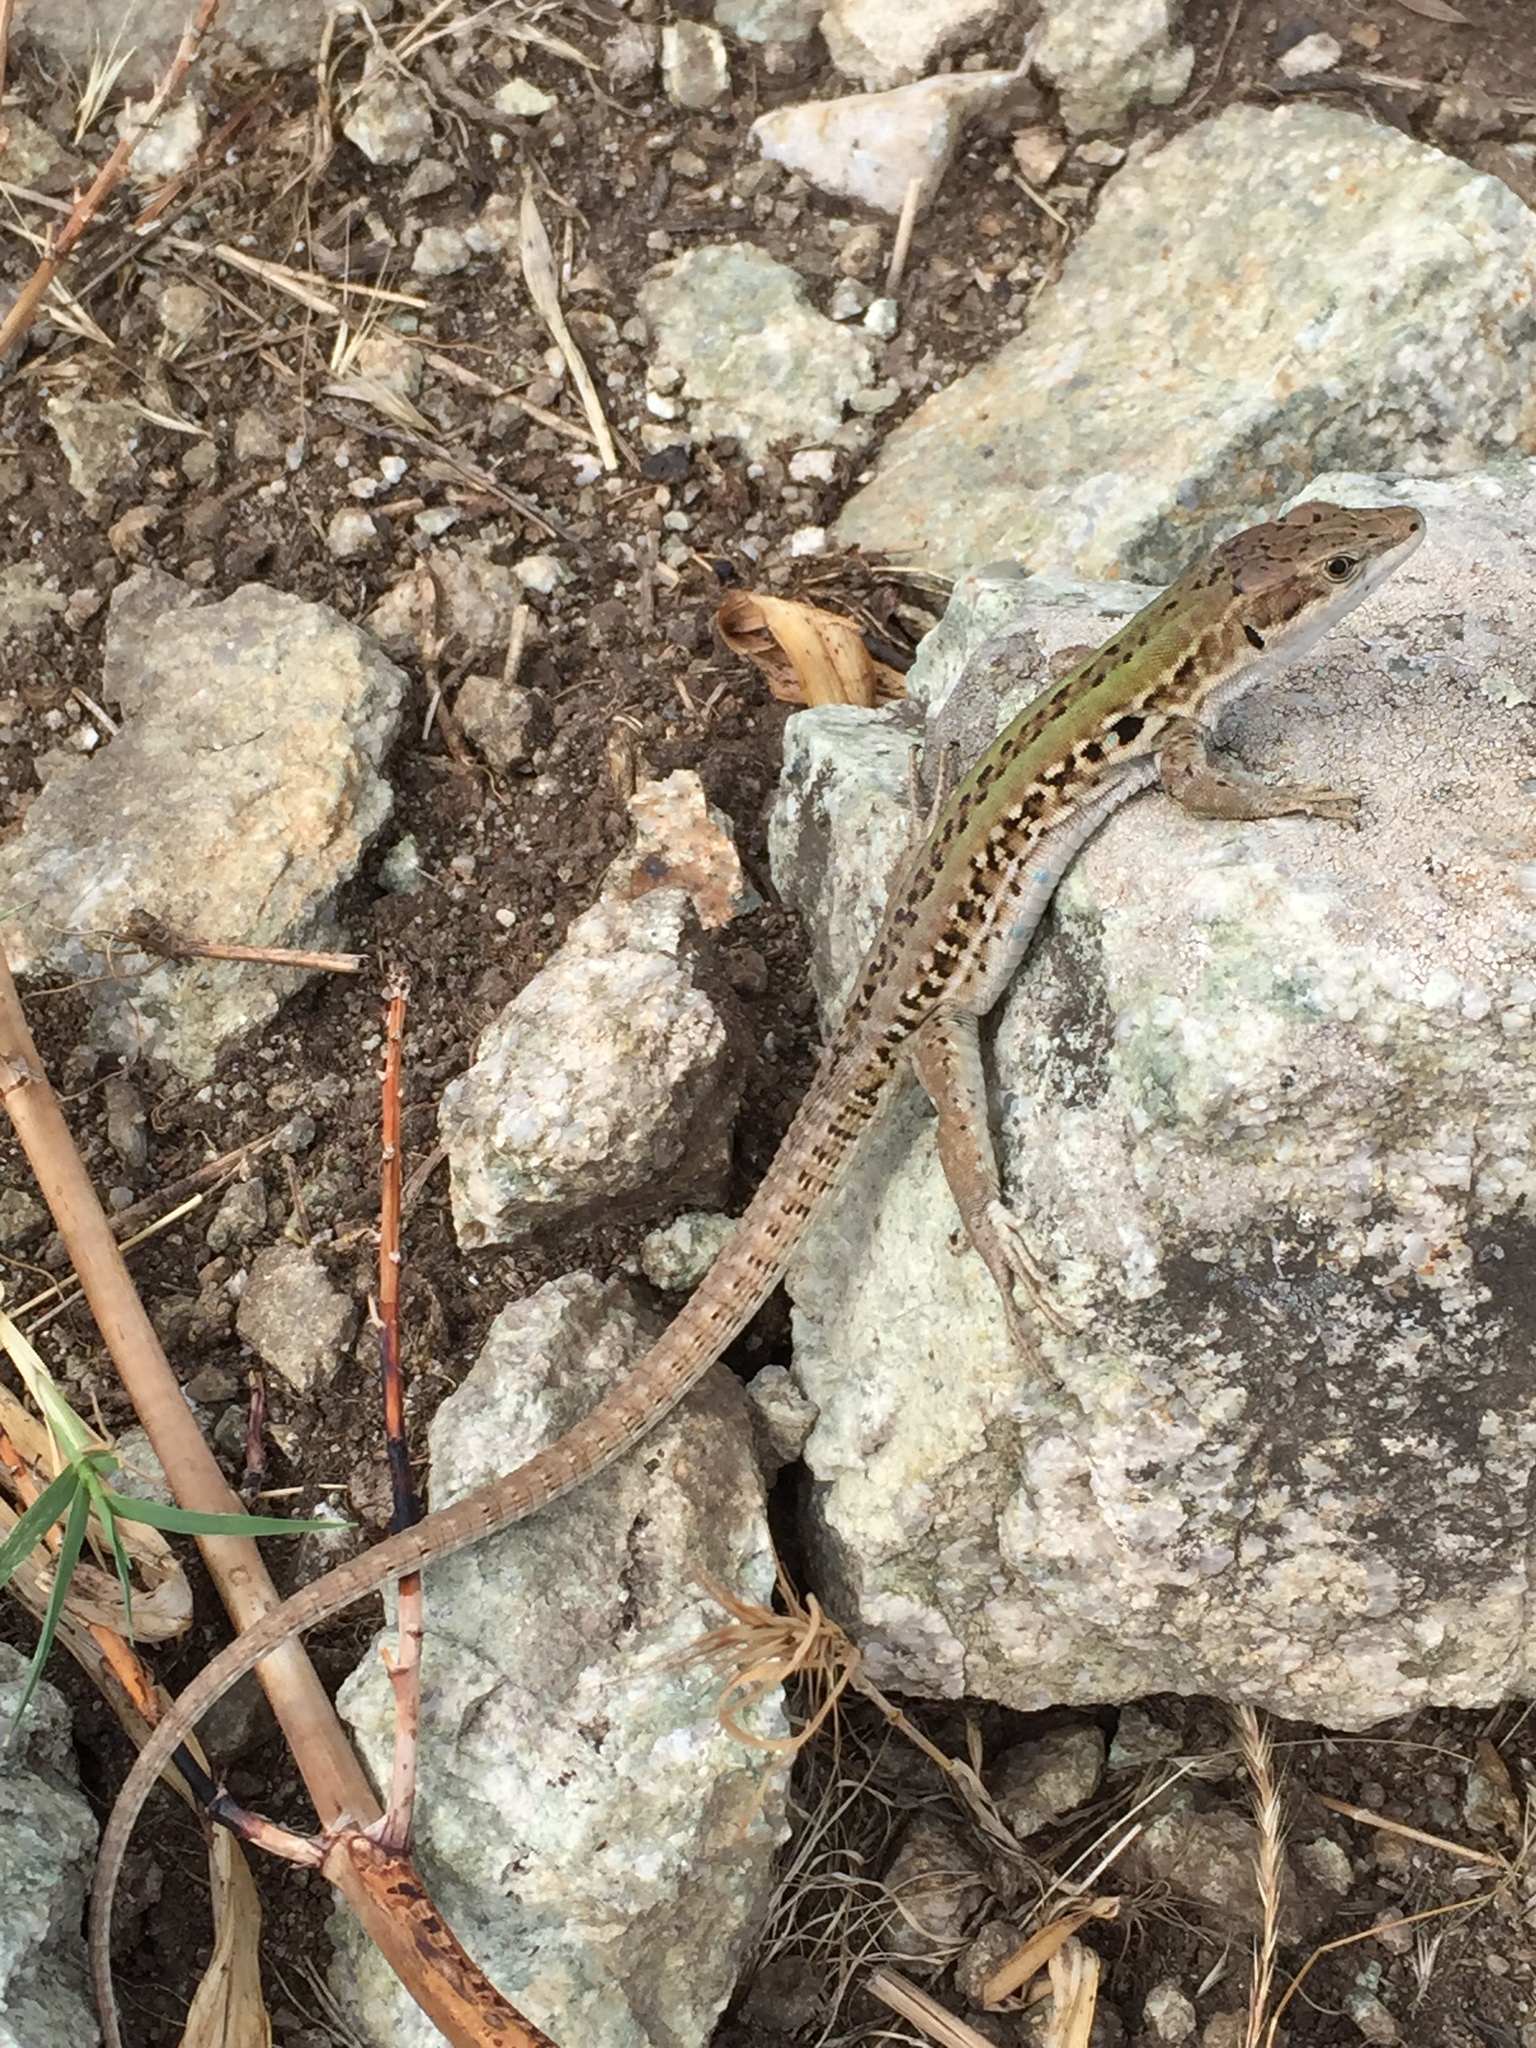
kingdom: Animalia
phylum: Chordata
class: Squamata
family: Lacertidae
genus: Podarcis
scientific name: Podarcis siculus
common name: Italian wall lizard
